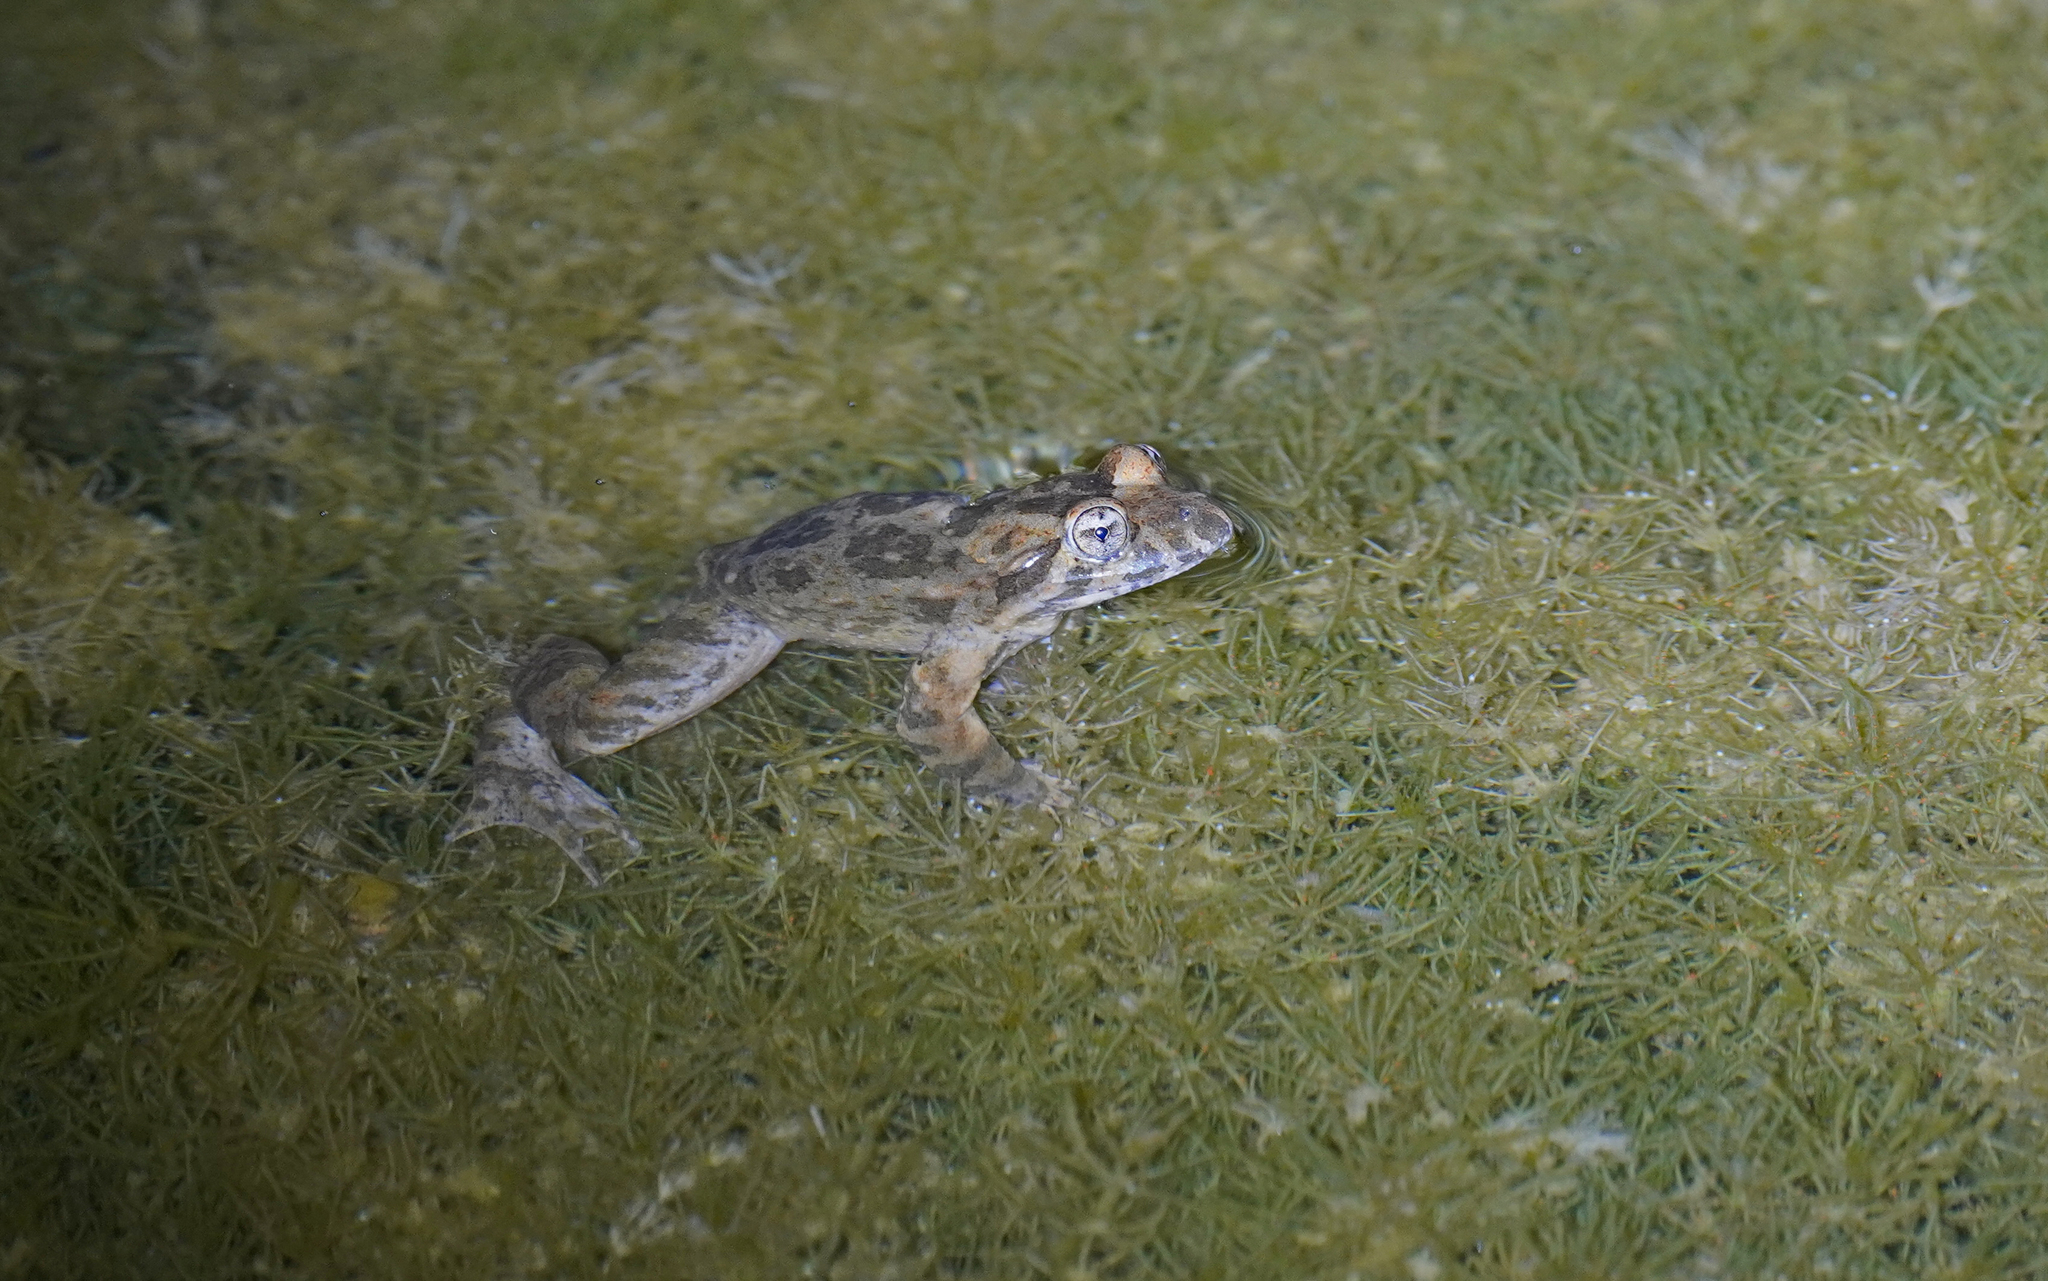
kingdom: Animalia
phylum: Chordata
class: Amphibia
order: Anura
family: Alytidae
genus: Discoglossus
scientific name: Discoglossus sardus
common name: Sardinia painted frog
